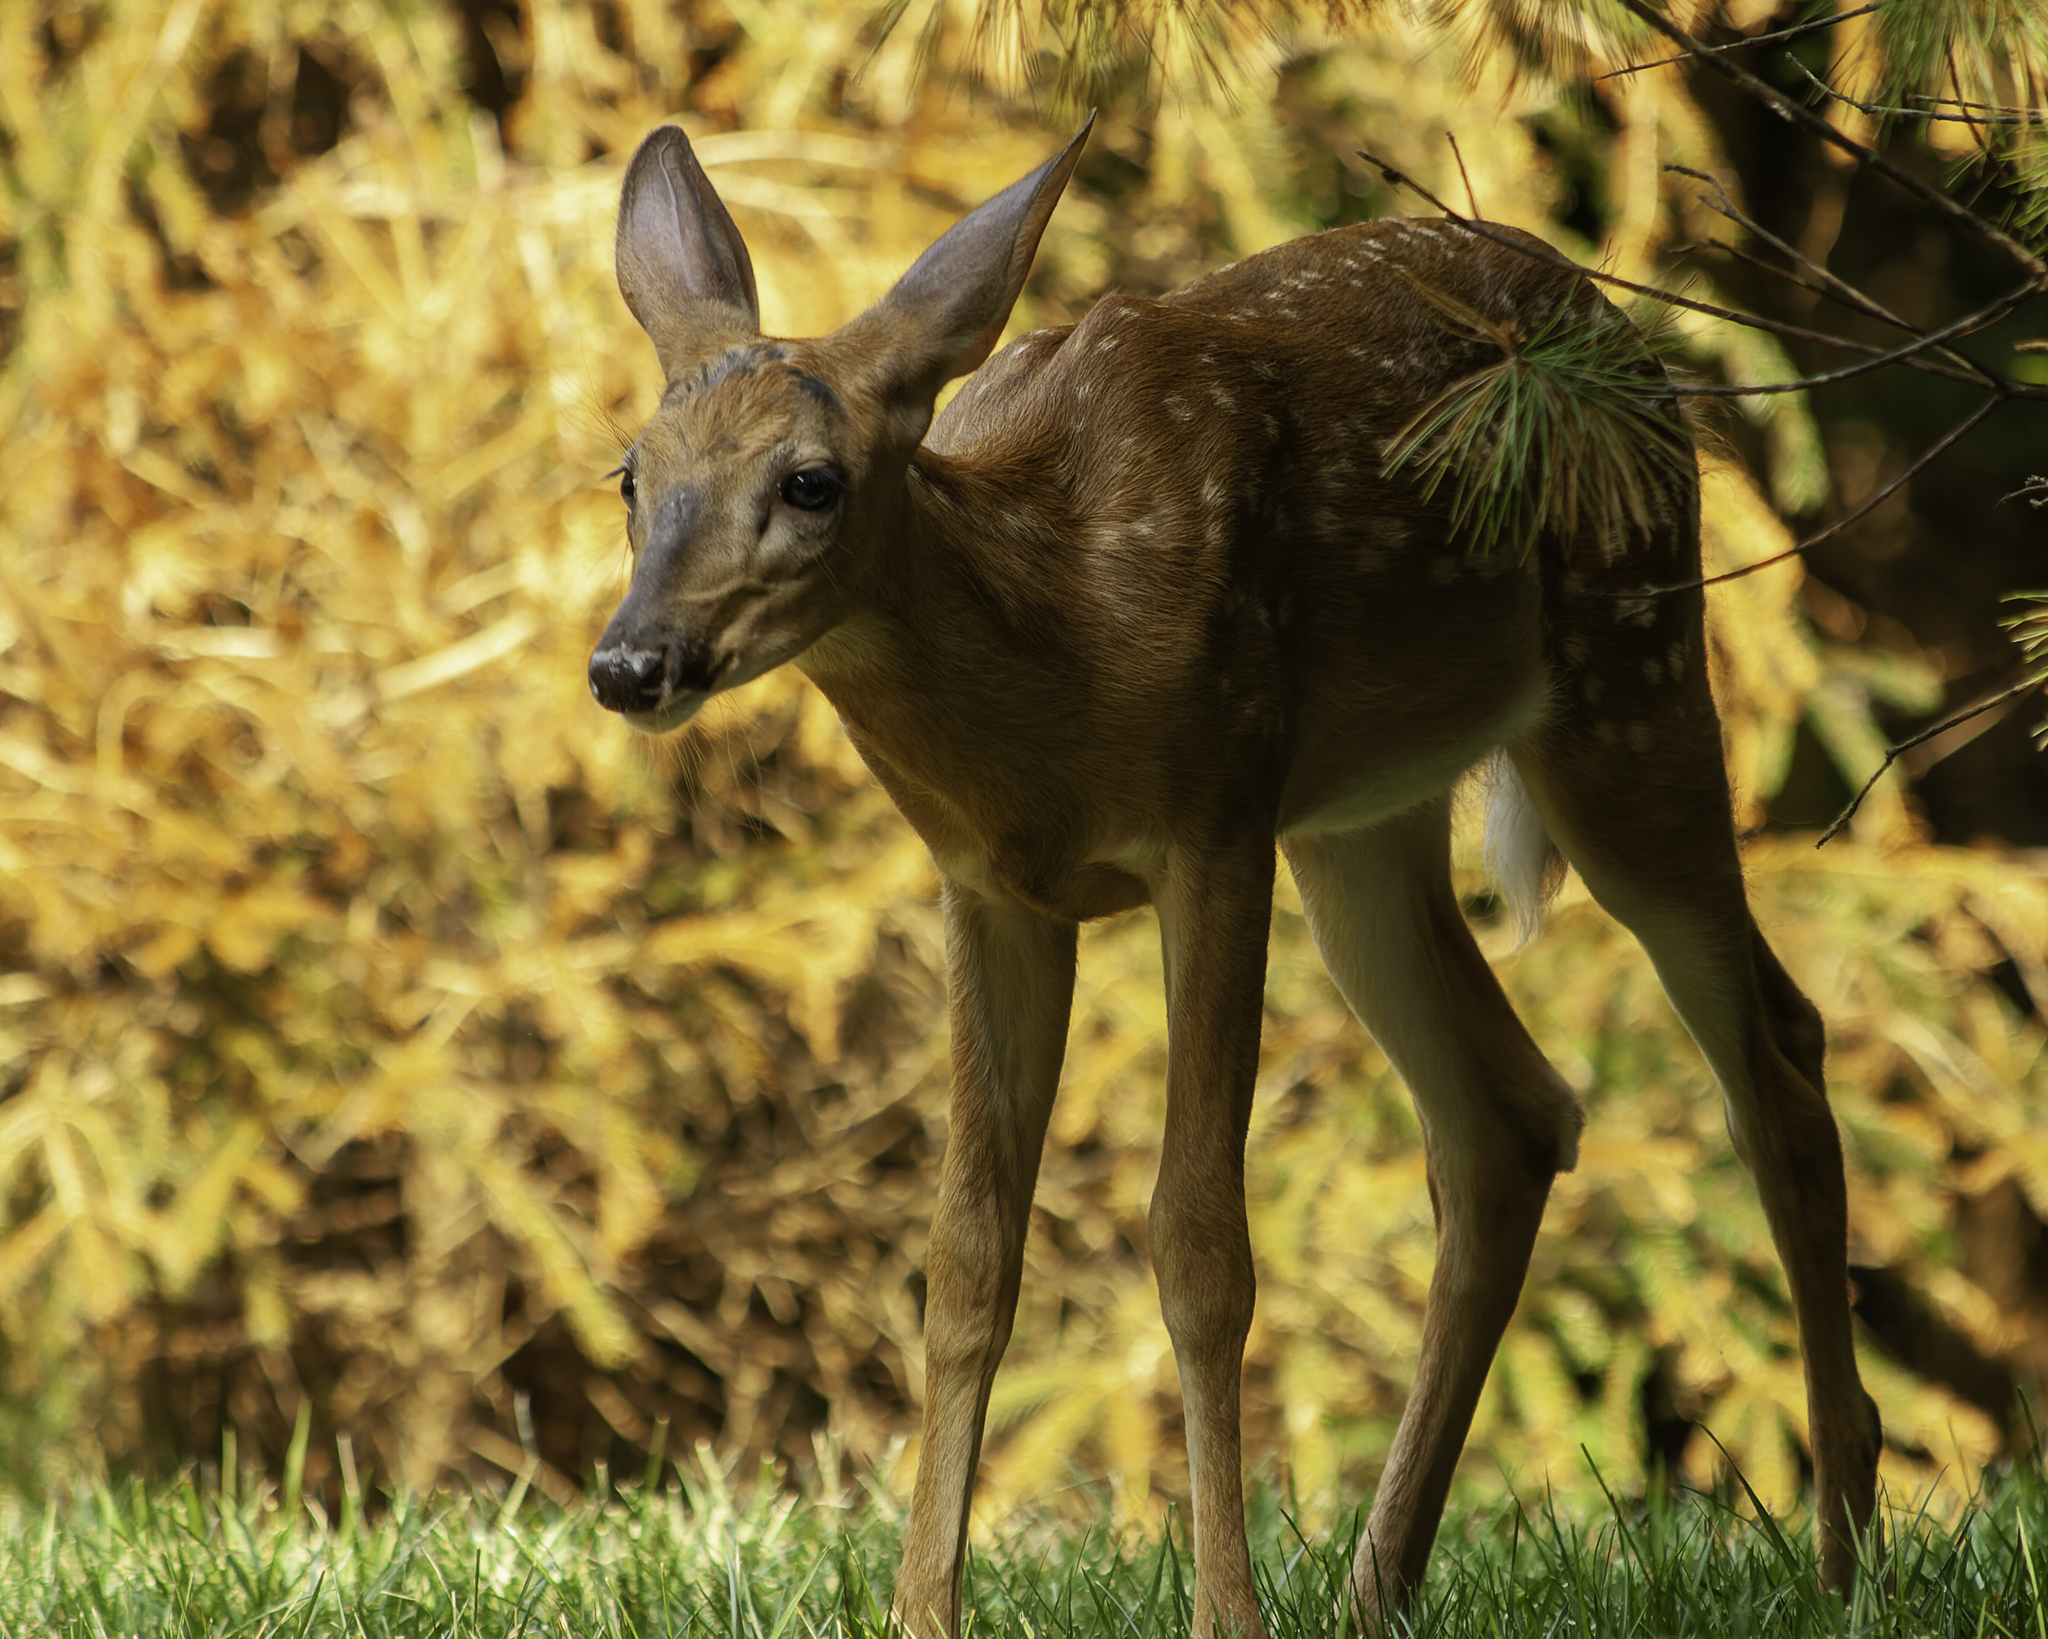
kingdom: Animalia
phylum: Chordata
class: Mammalia
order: Artiodactyla
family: Cervidae
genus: Odocoileus
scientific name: Odocoileus virginianus
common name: White-tailed deer
